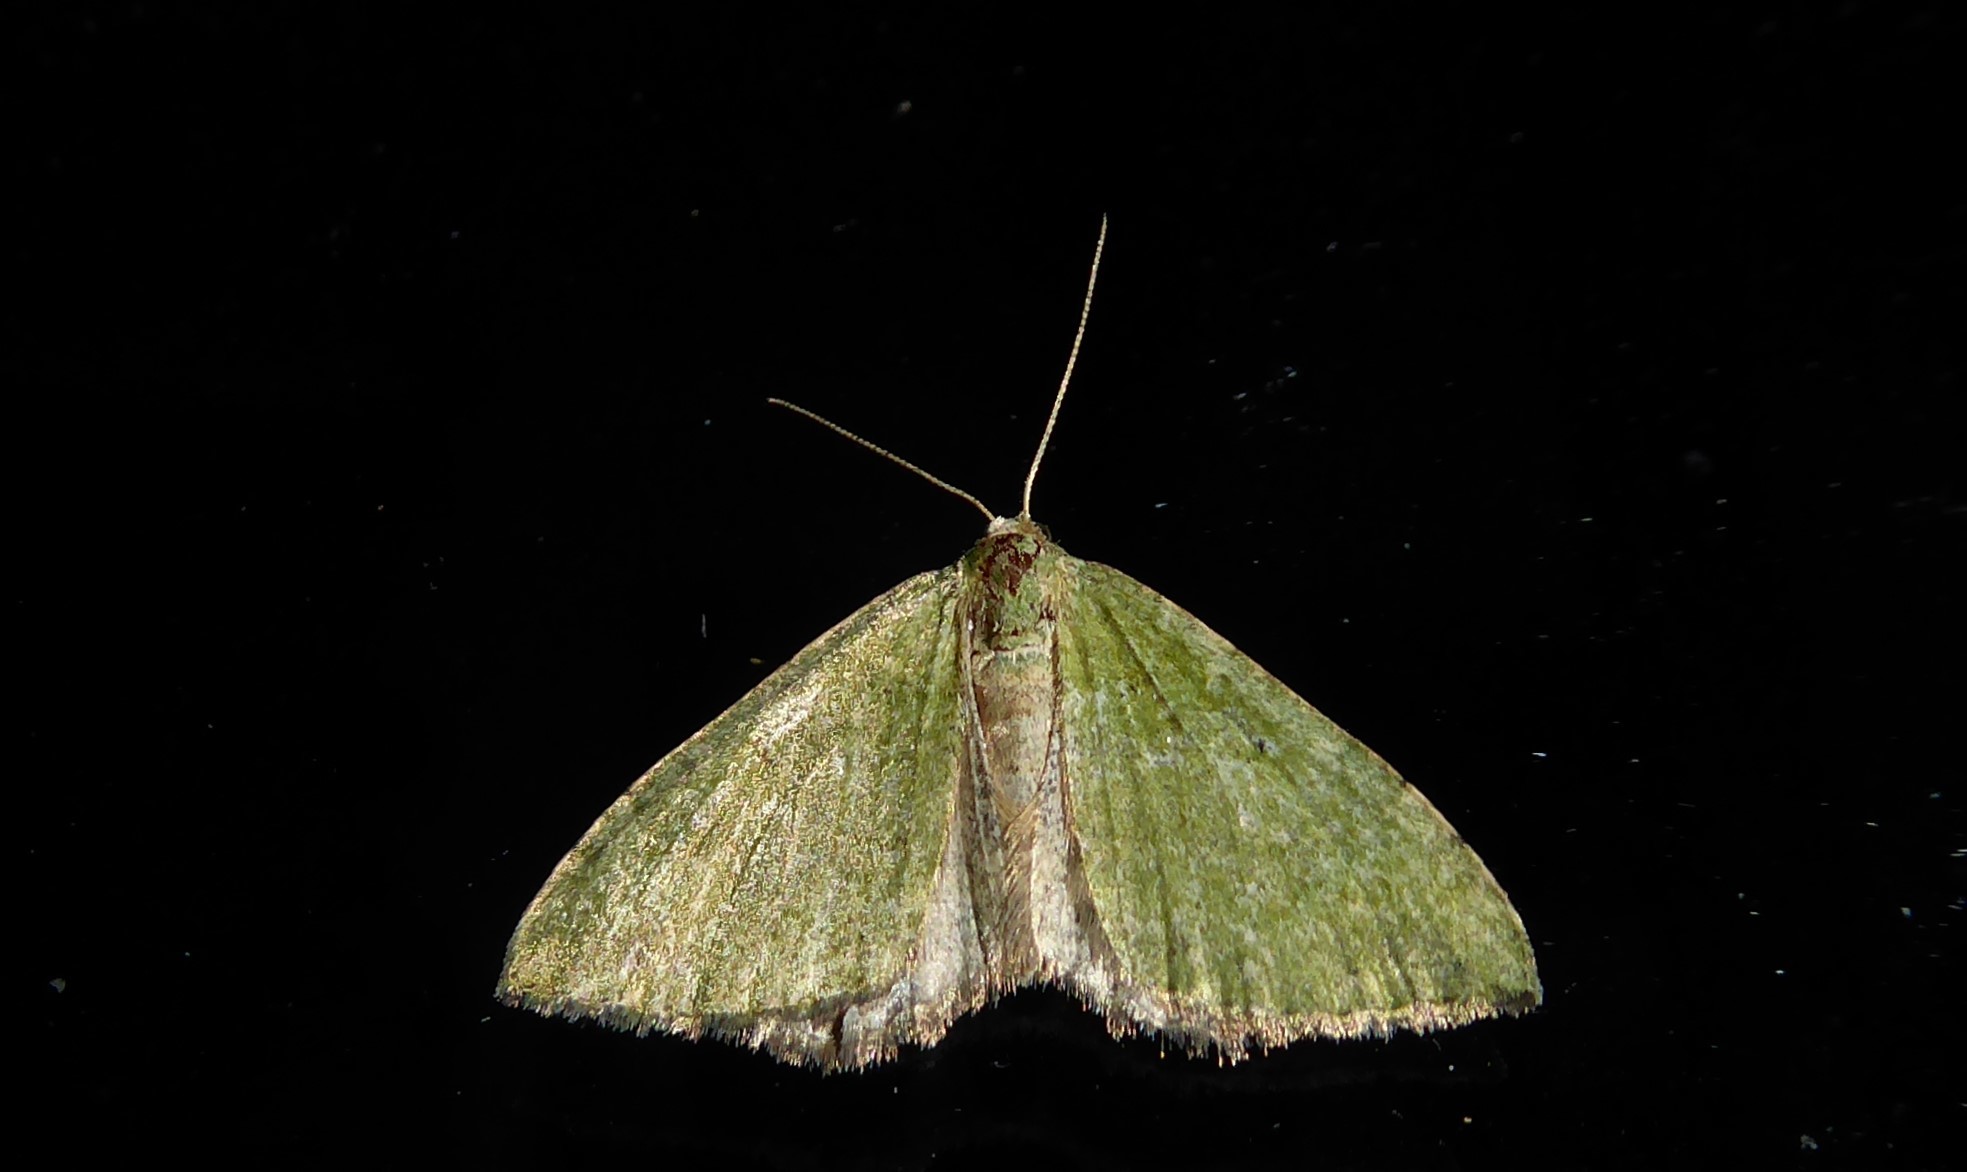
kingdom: Animalia
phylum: Arthropoda
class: Insecta
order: Lepidoptera
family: Geometridae
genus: Epyaxa
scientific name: Epyaxa rosearia
